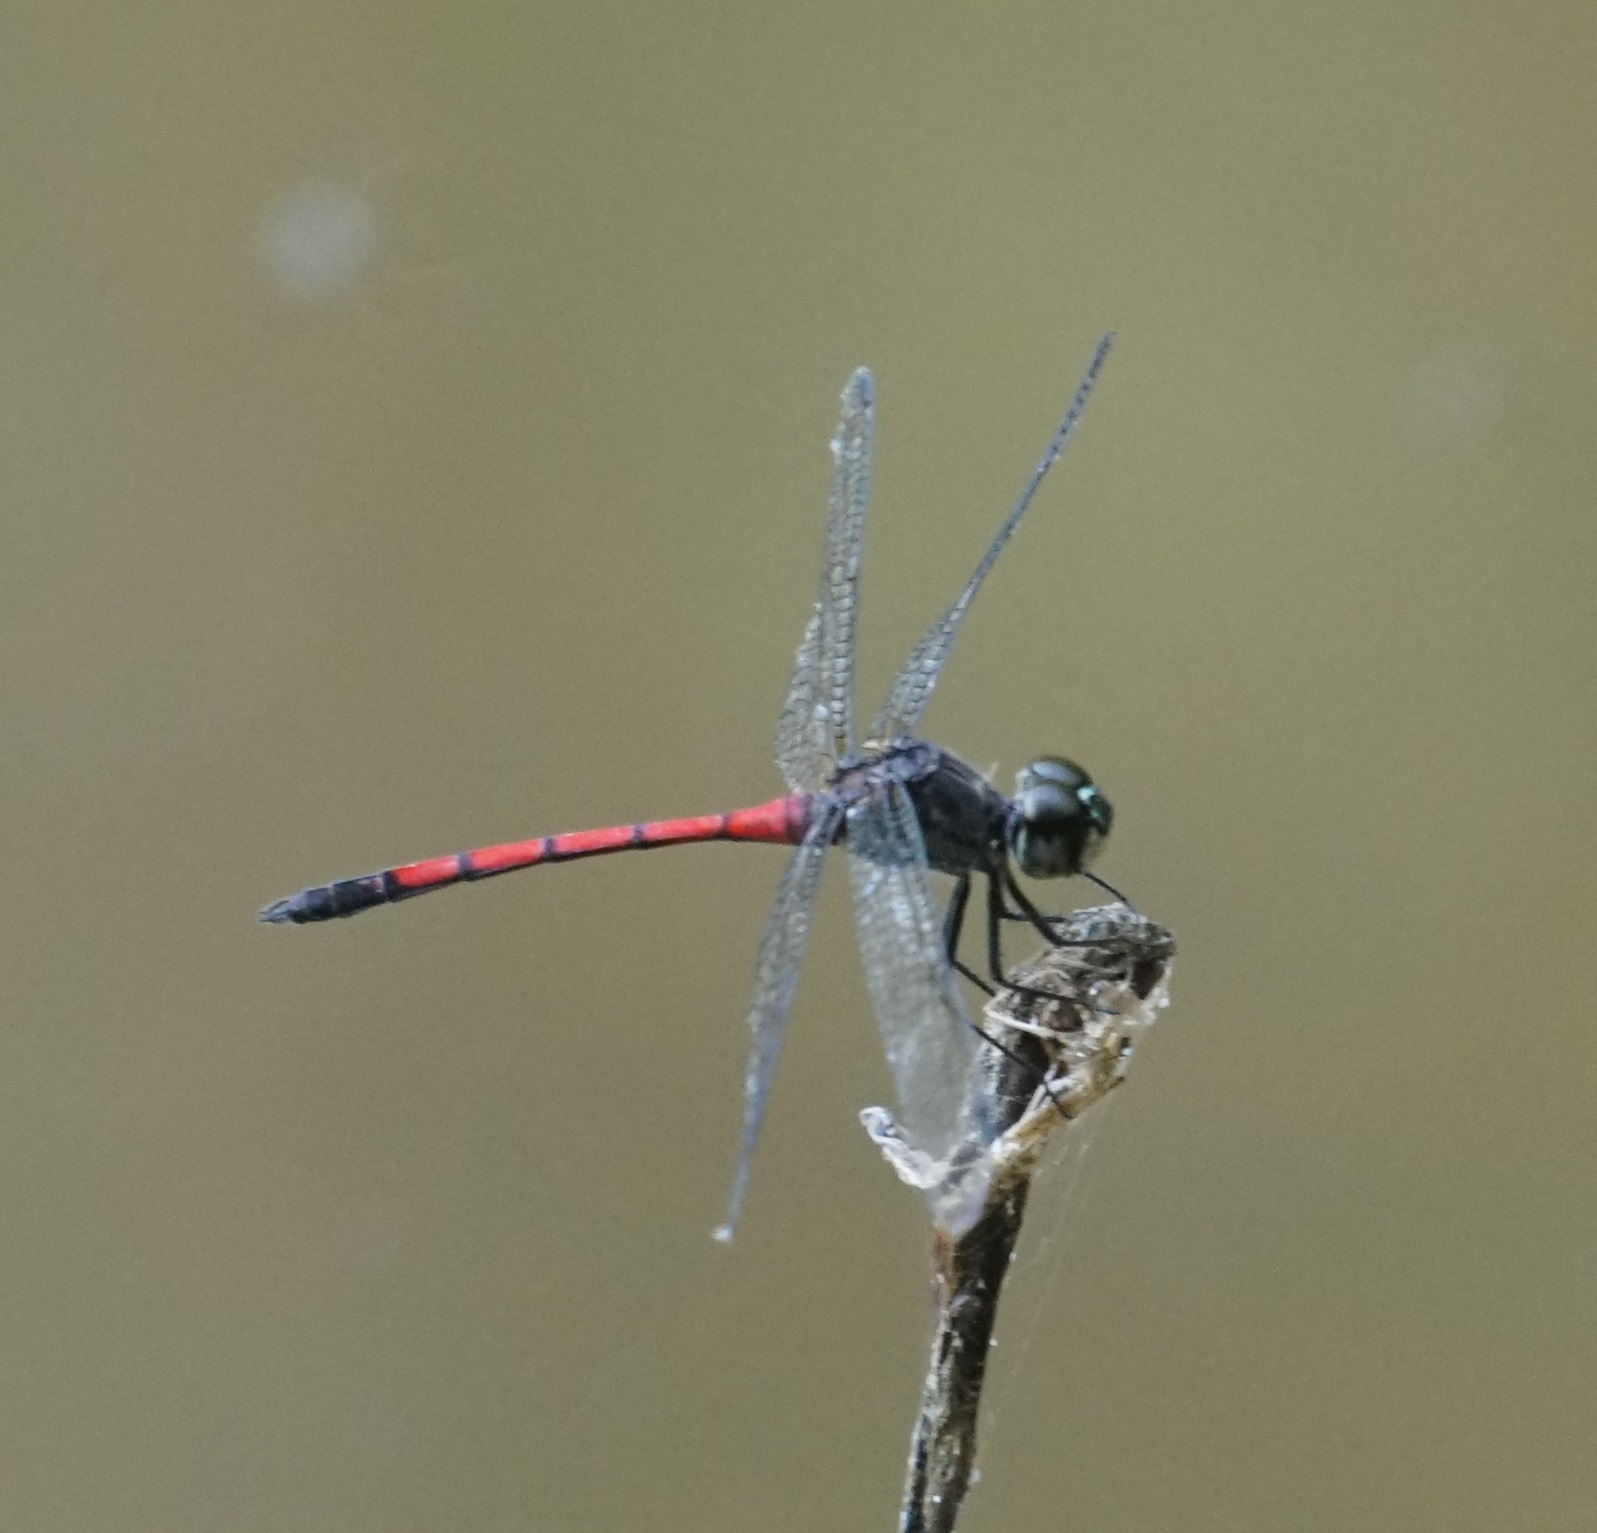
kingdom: Animalia
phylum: Arthropoda
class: Insecta
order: Odonata
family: Libellulidae
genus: Agrionoptera
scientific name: Agrionoptera insignis
